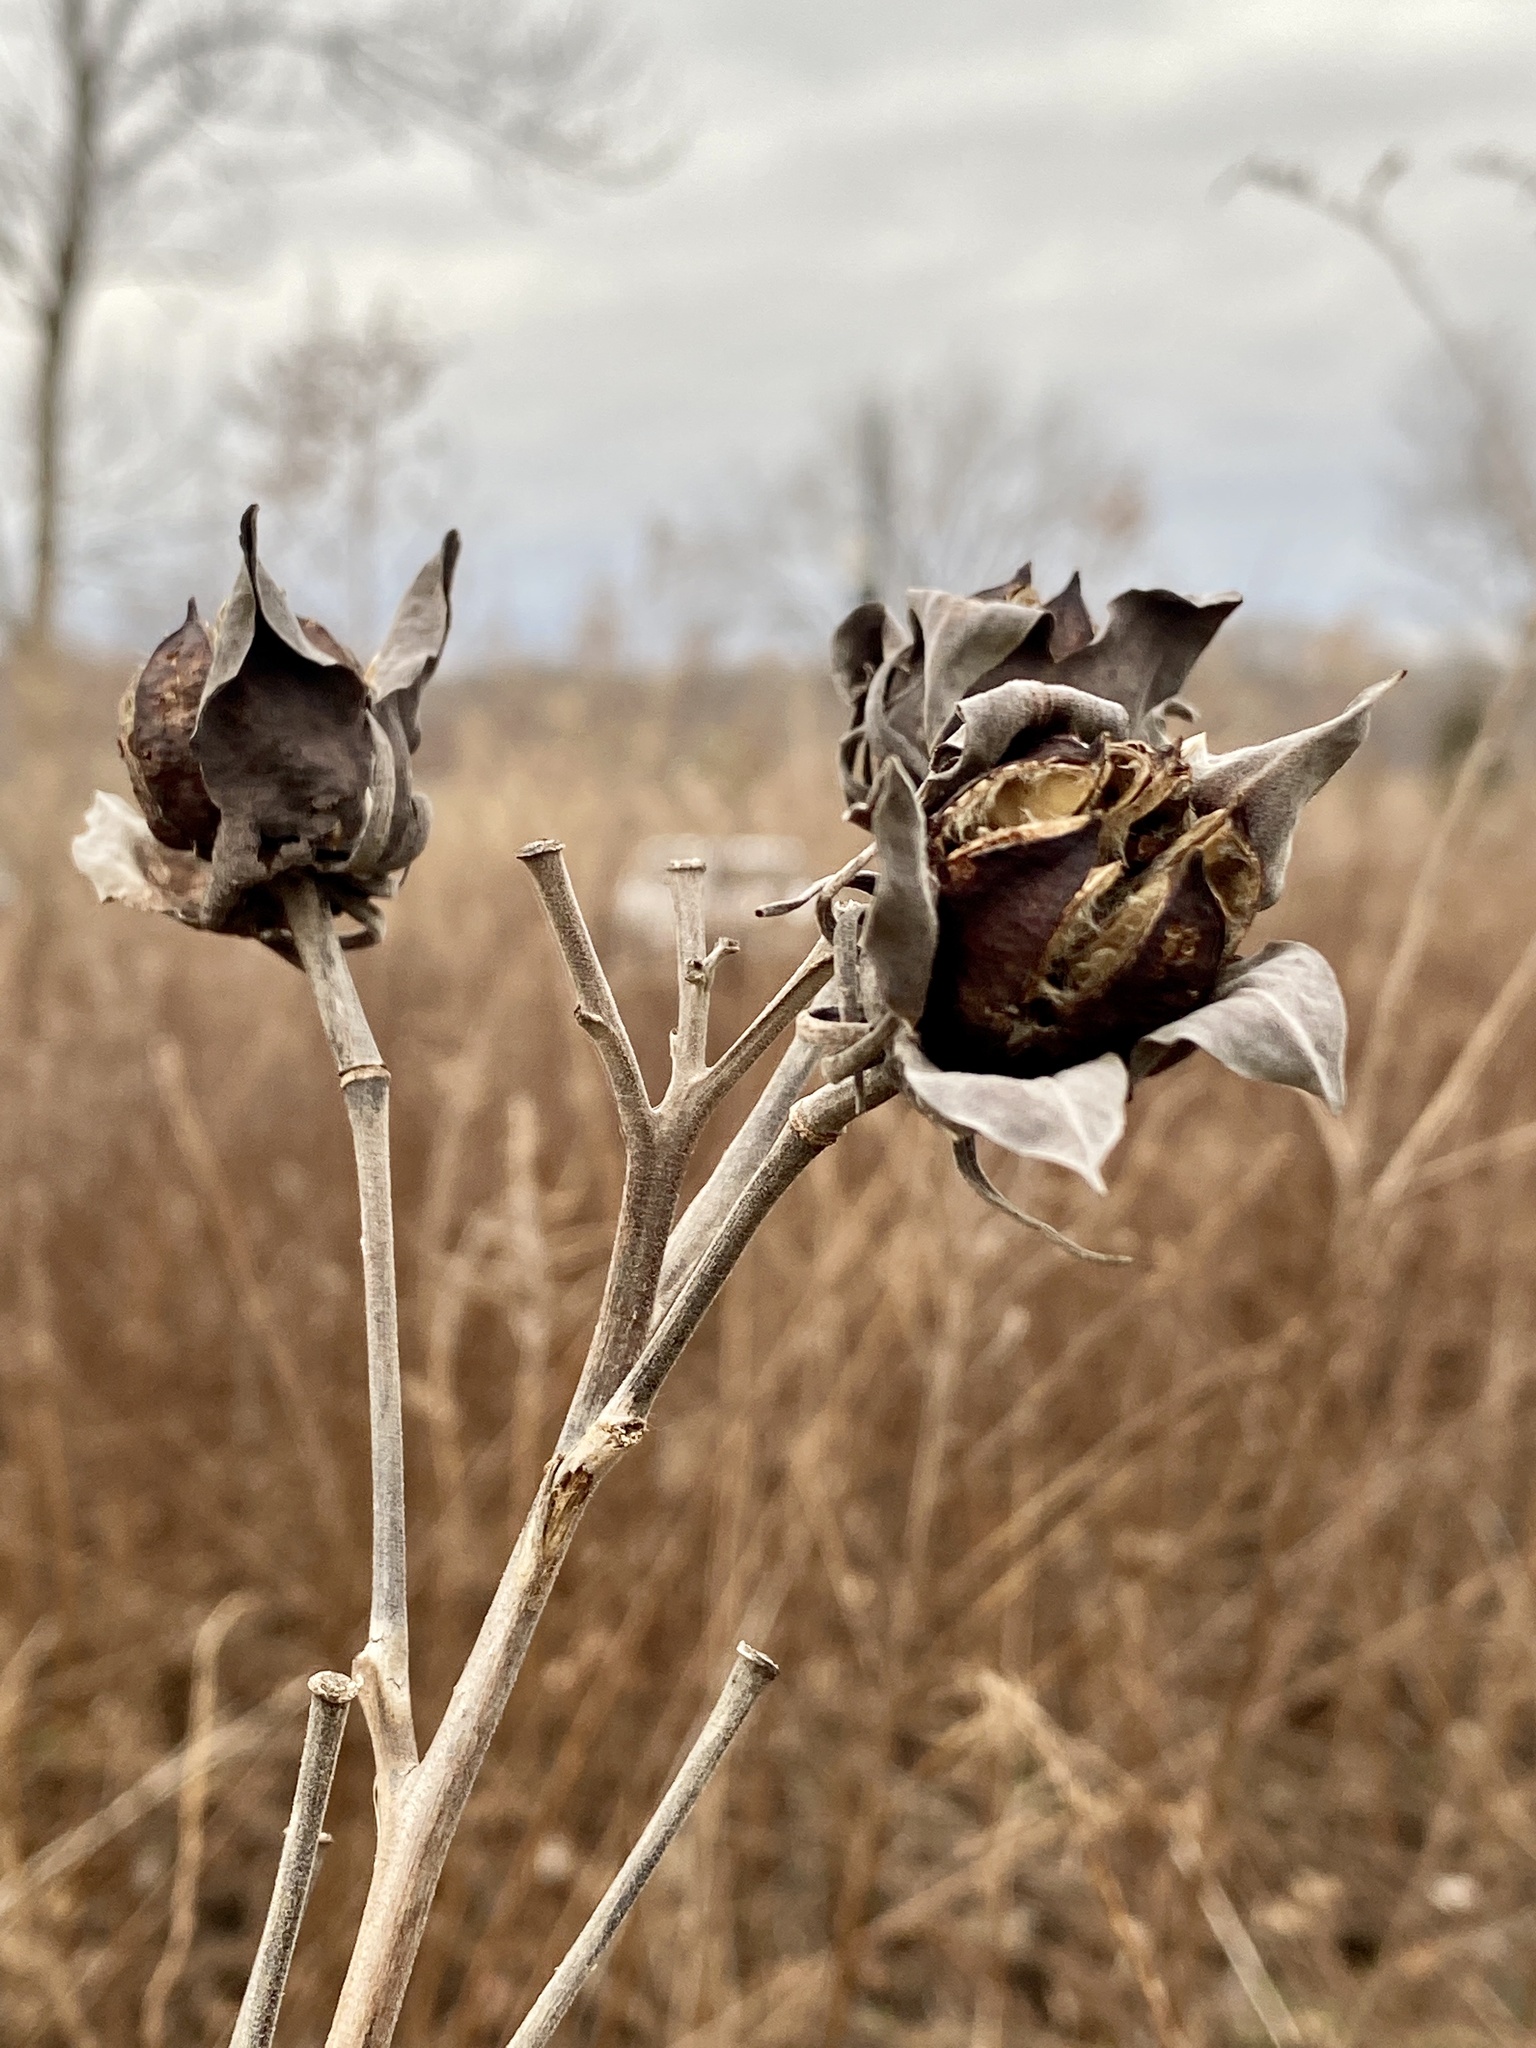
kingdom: Plantae
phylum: Tracheophyta
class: Magnoliopsida
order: Malvales
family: Malvaceae
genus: Hibiscus
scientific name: Hibiscus moscheutos
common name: Common rose-mallow
